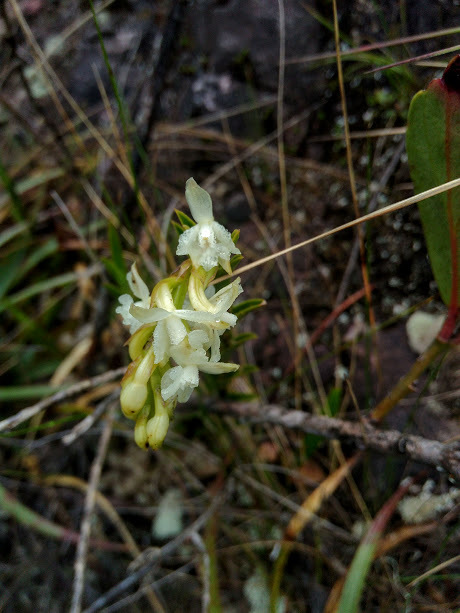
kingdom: Plantae
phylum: Tracheophyta
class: Liliopsida
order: Asparagales
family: Orchidaceae
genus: Epidendrum
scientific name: Epidendrum chioneum
